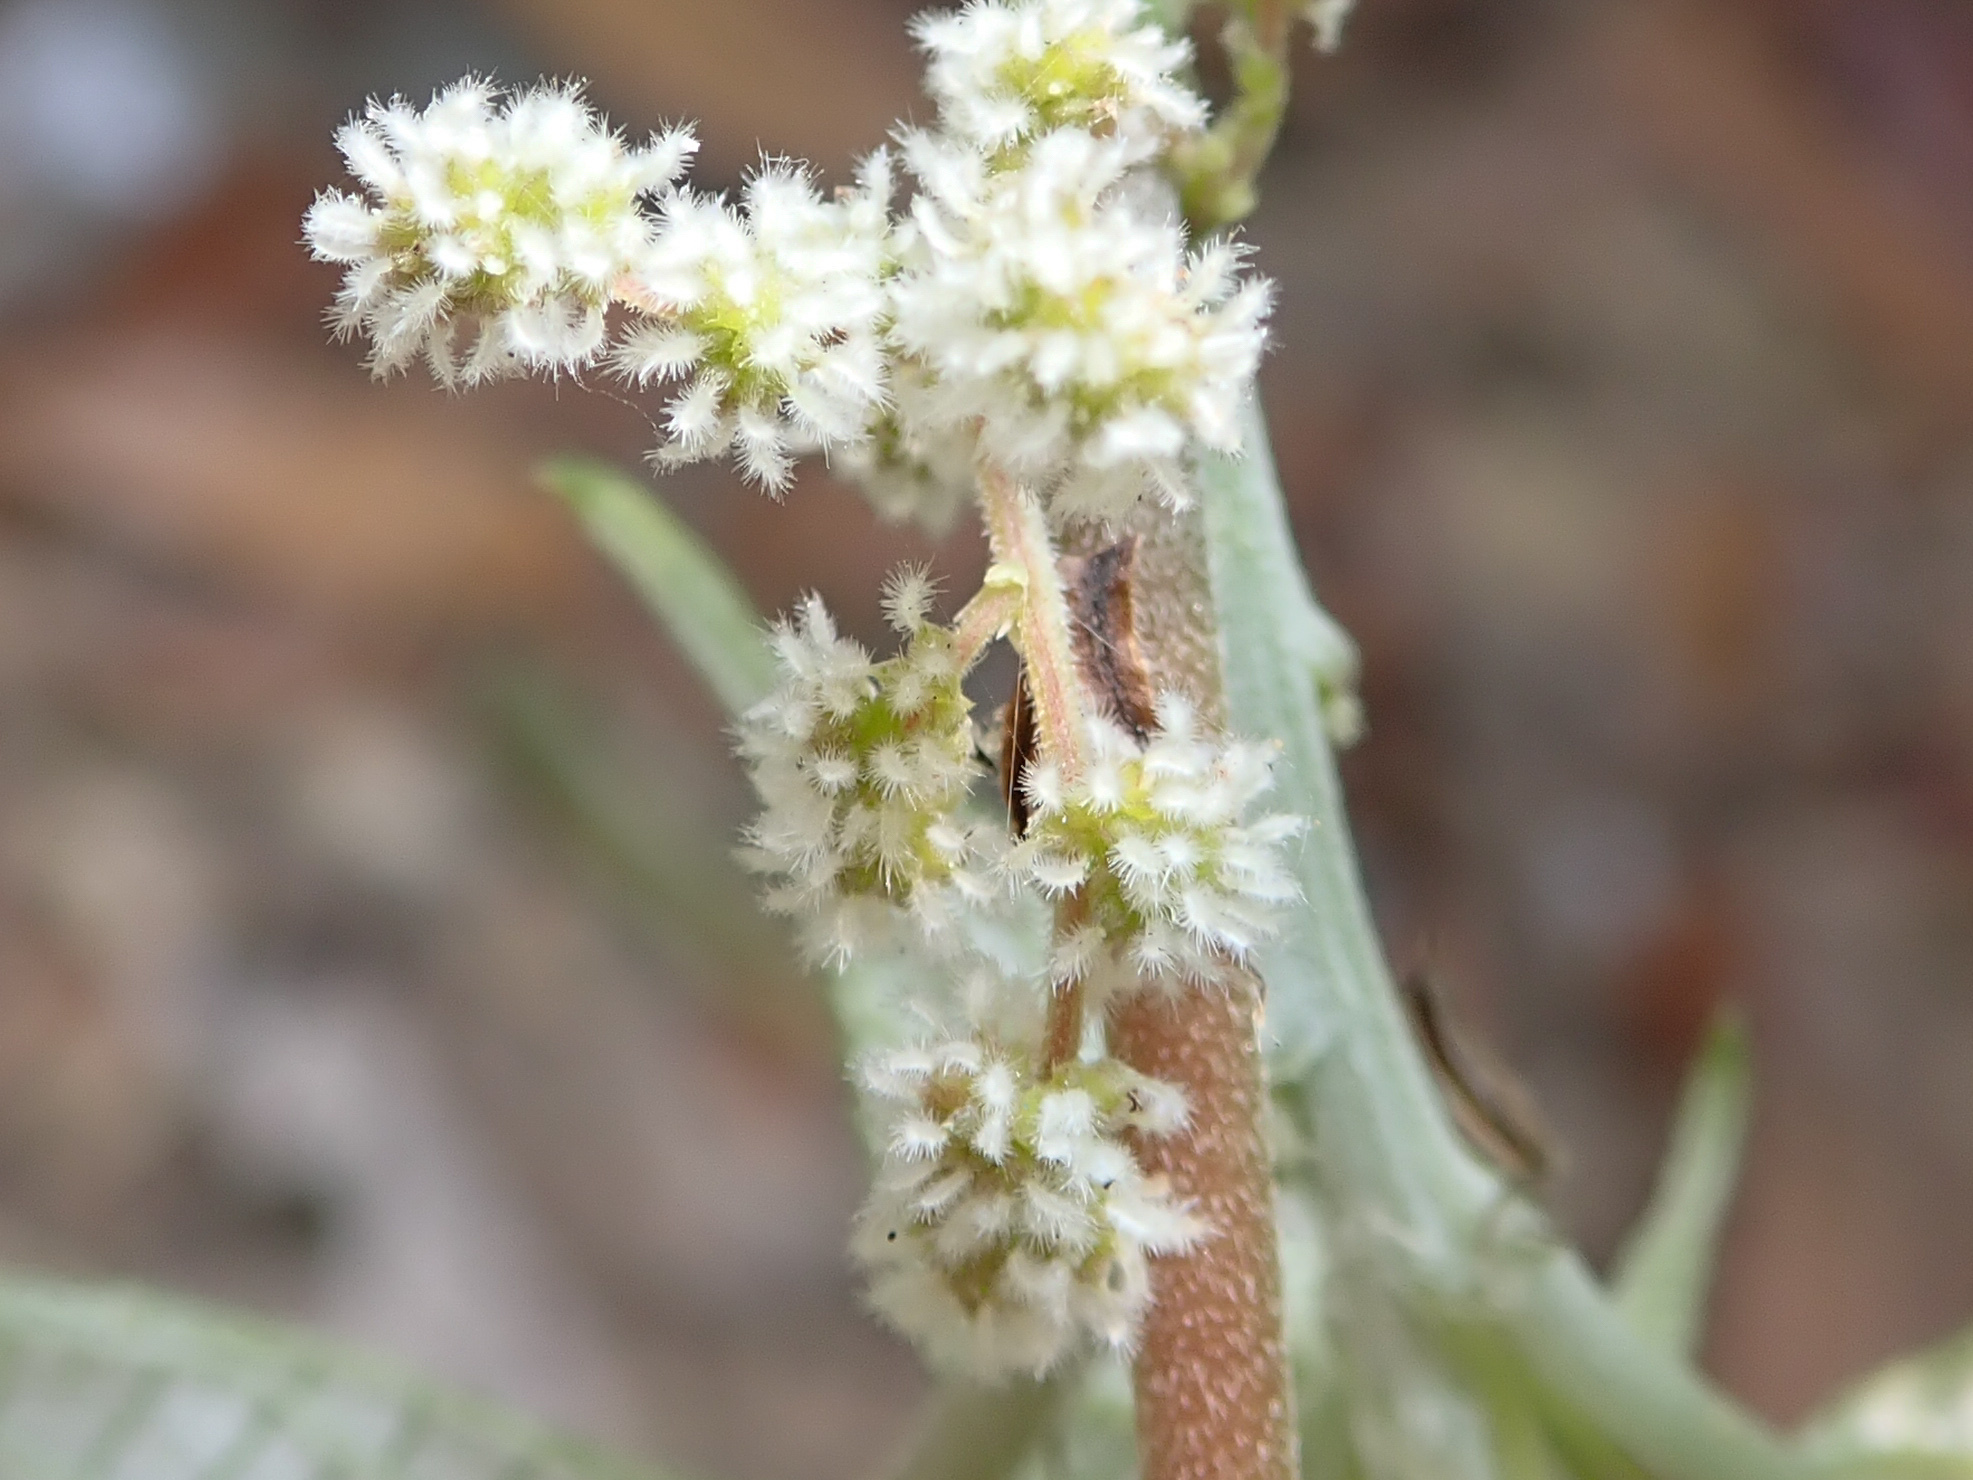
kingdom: Plantae
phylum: Tracheophyta
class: Magnoliopsida
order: Rosales
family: Urticaceae
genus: Boehmeria
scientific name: Boehmeria nivea
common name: Ramie chinese grass
